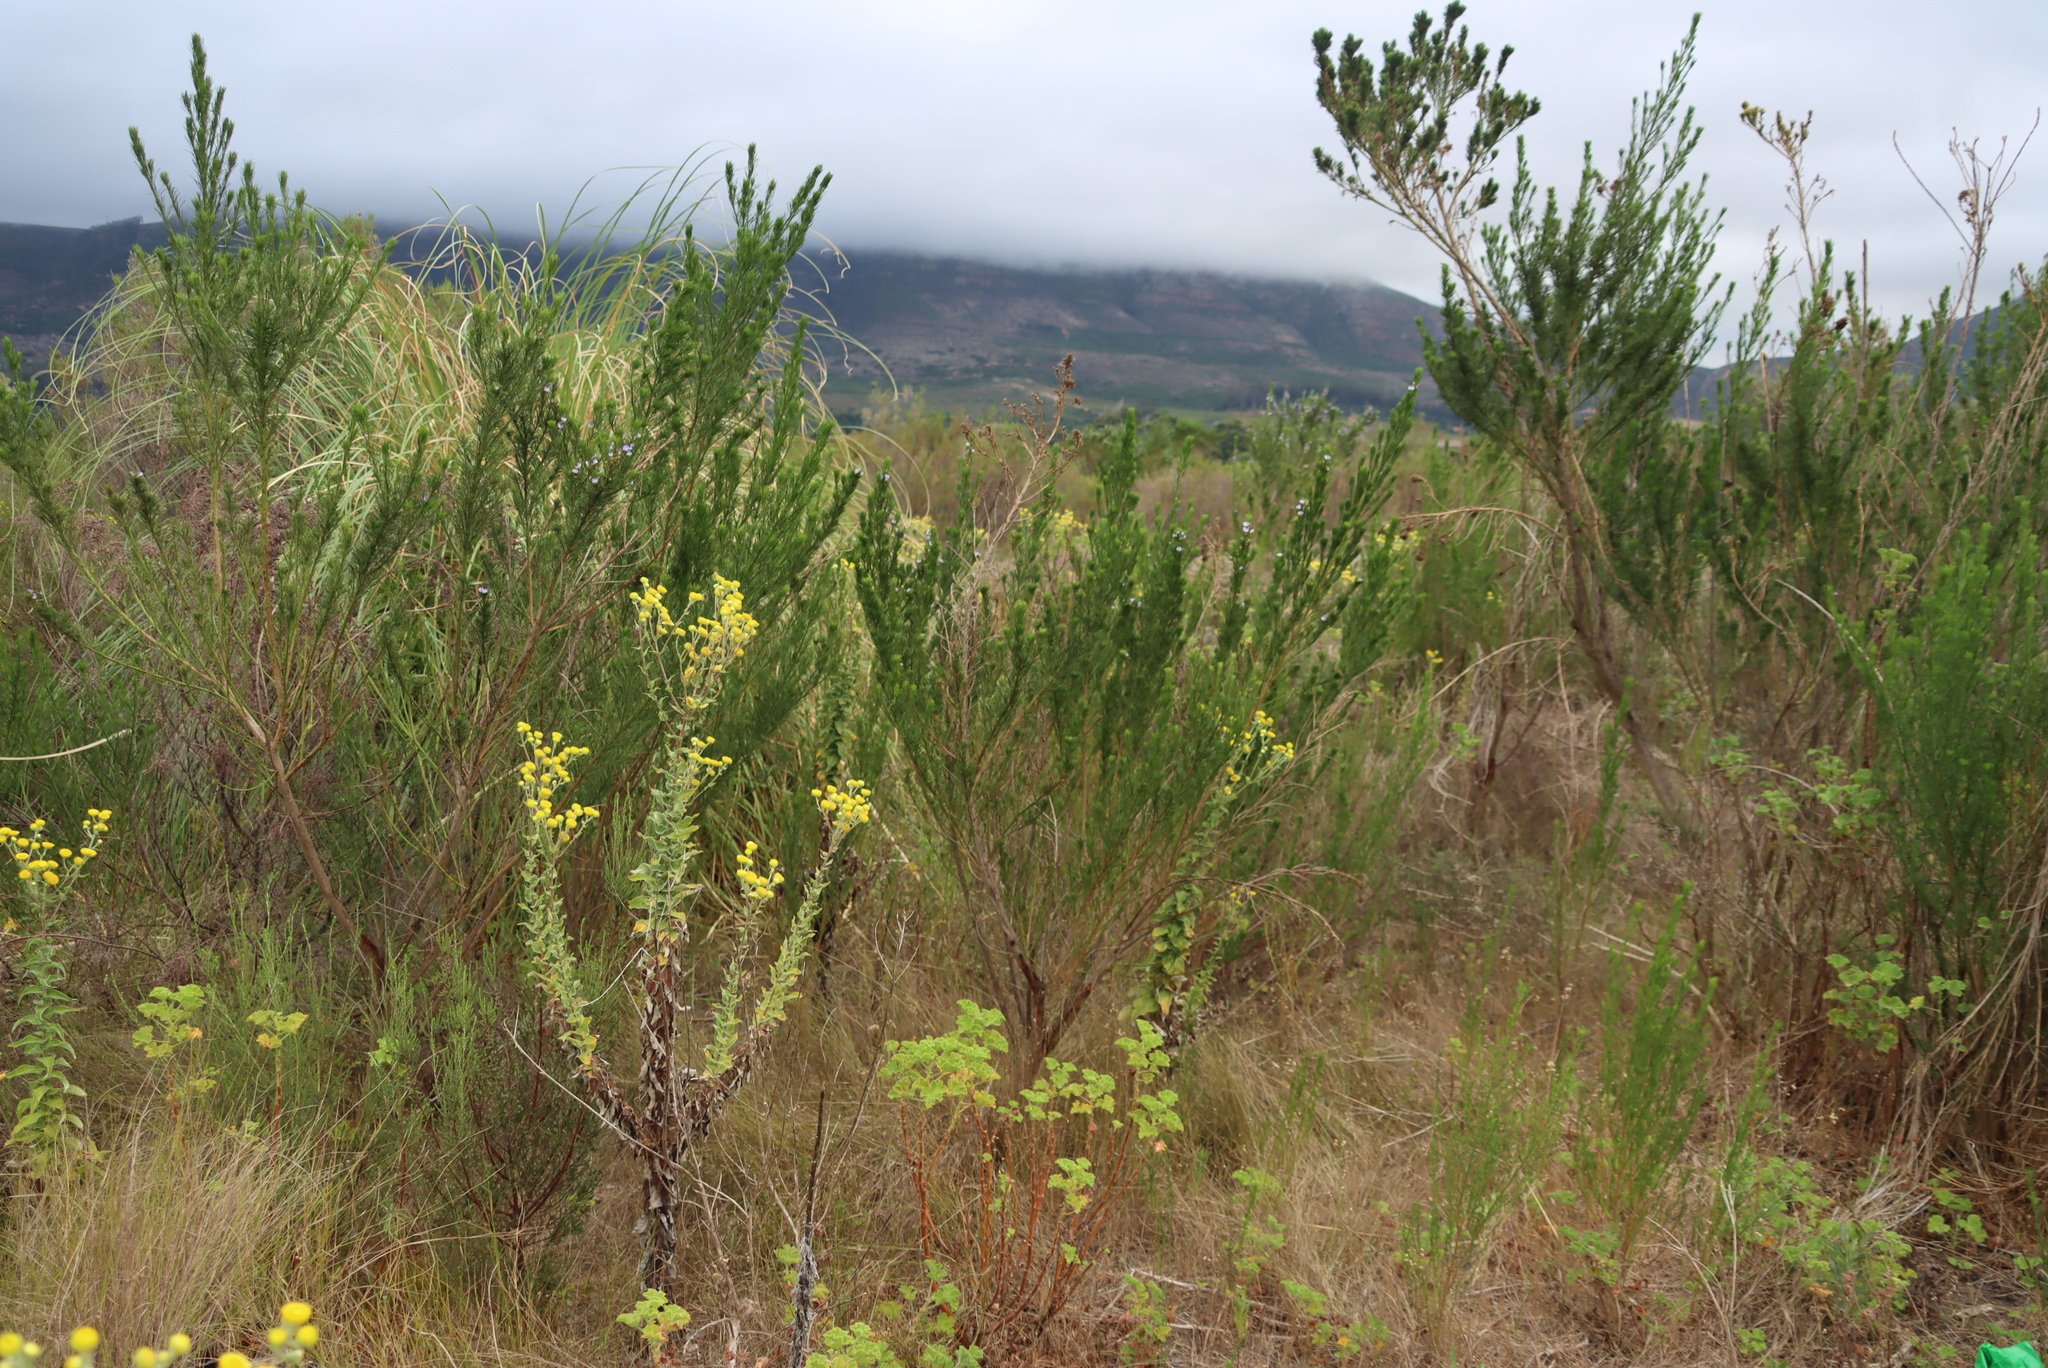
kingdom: Plantae
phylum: Tracheophyta
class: Magnoliopsida
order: Asterales
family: Asteraceae
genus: Helichrysum
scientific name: Helichrysum foetidum
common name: Stinking everlasting
